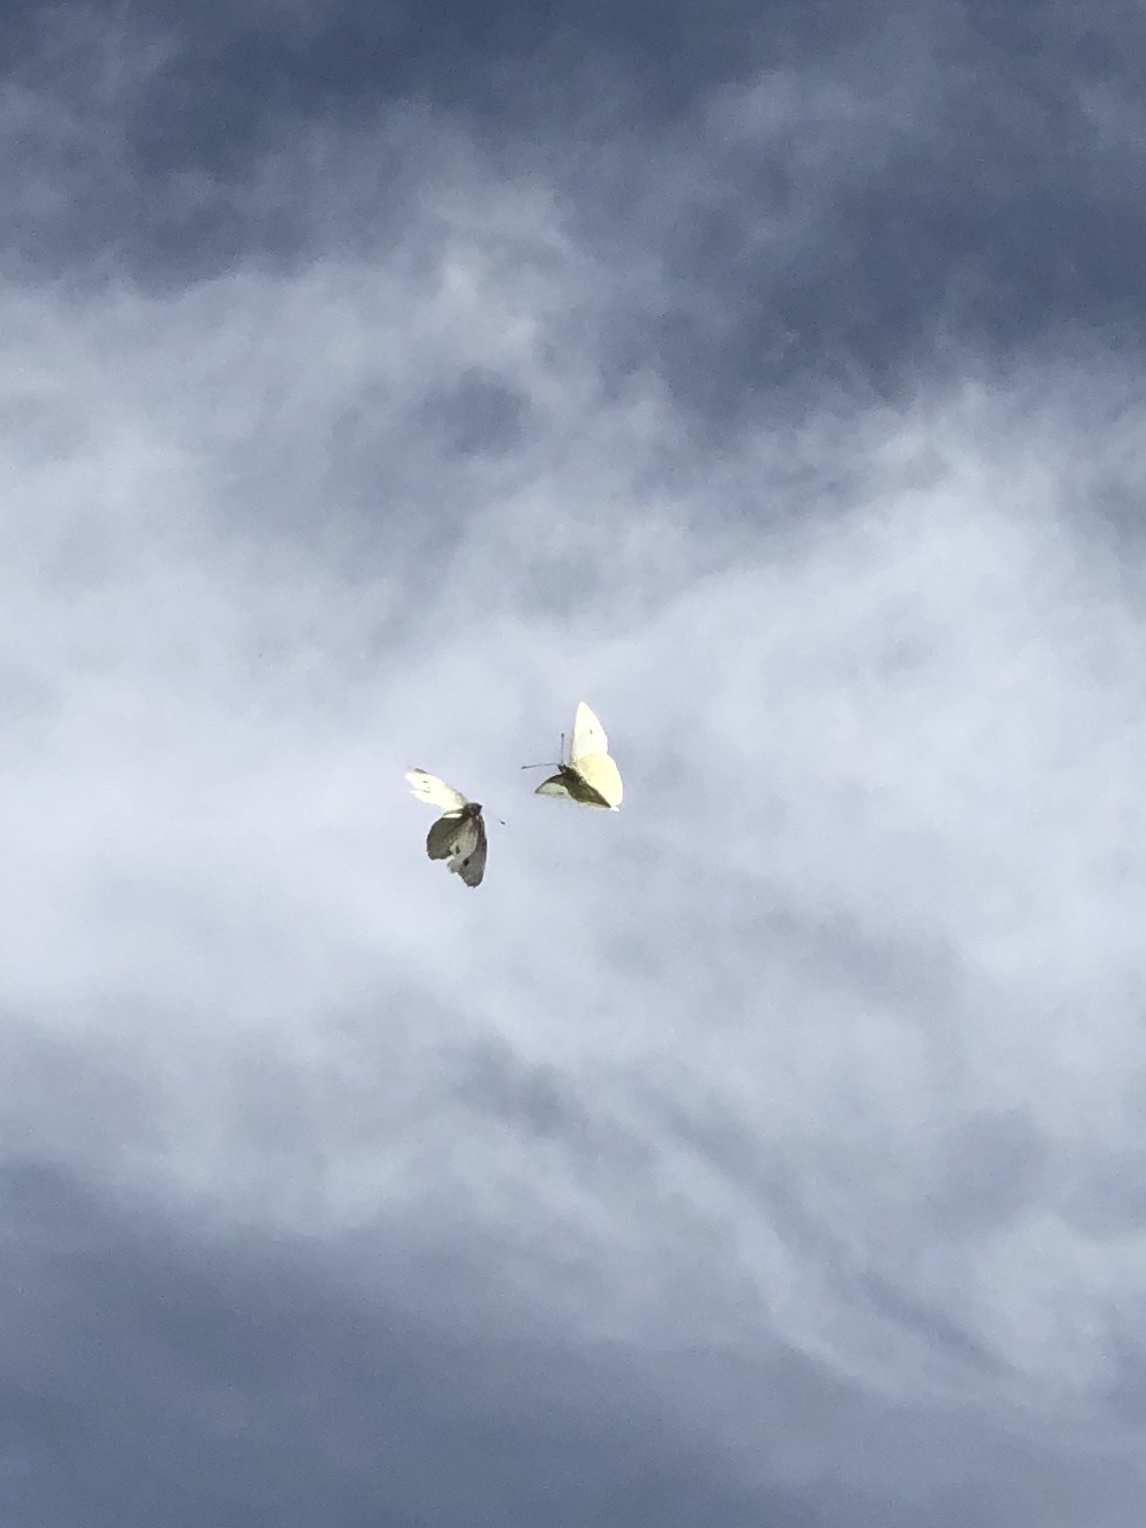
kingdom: Animalia
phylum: Arthropoda
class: Insecta
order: Lepidoptera
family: Pieridae
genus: Pieris
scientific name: Pieris rapae
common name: Small white
